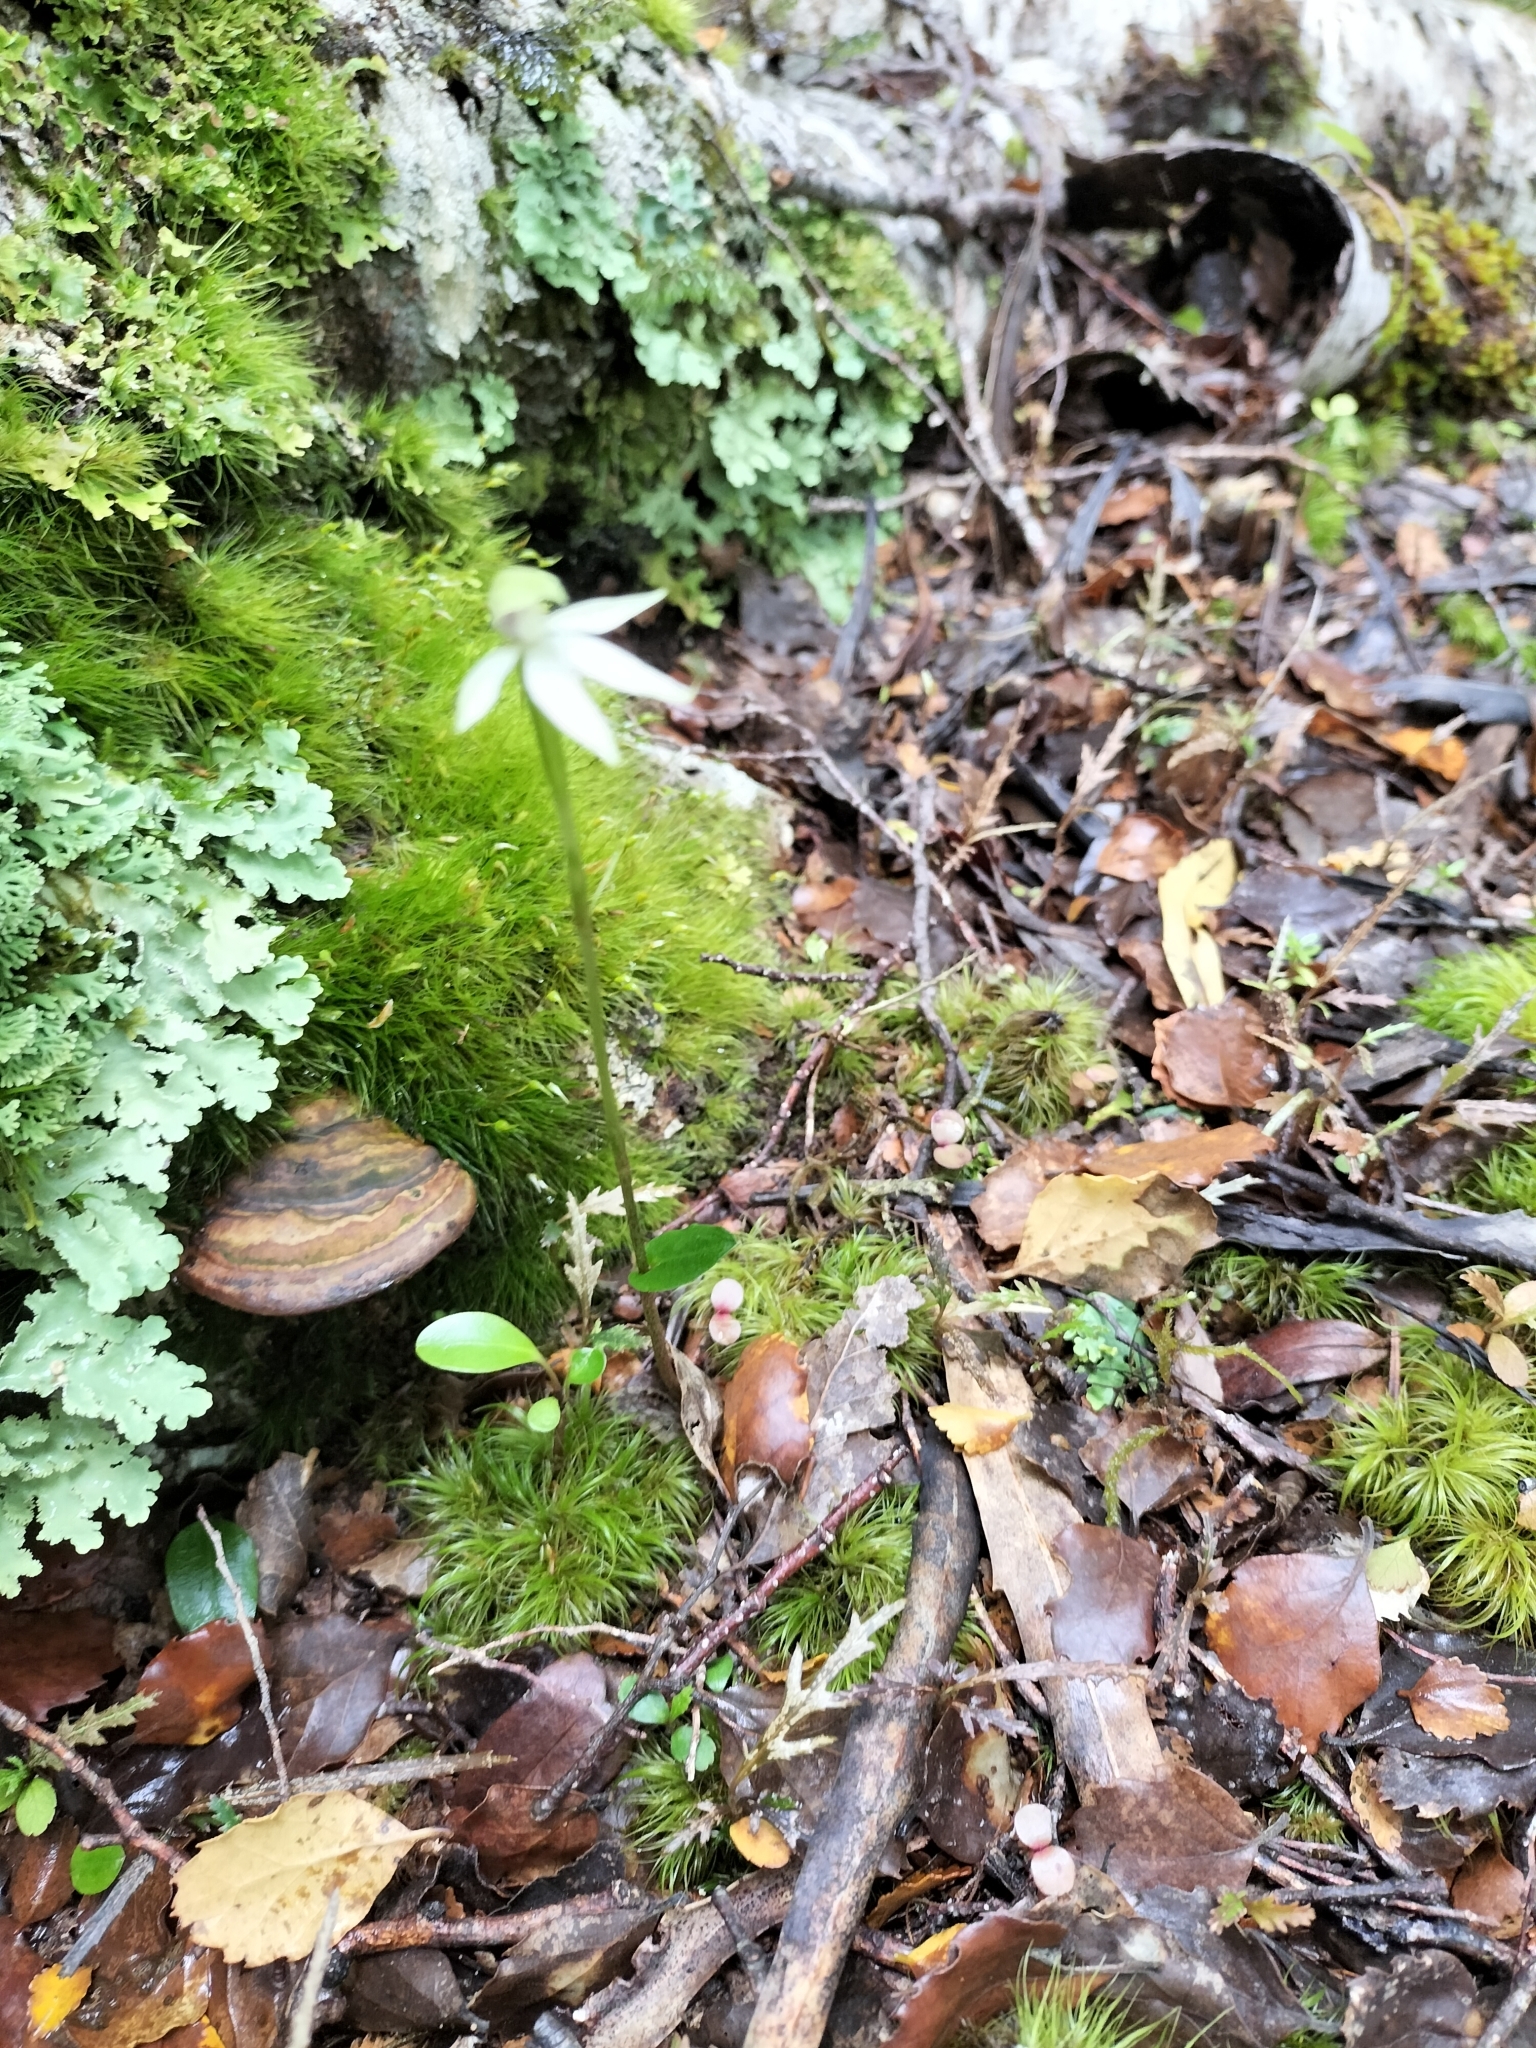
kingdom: Plantae
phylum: Tracheophyta
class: Liliopsida
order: Asparagales
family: Orchidaceae
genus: Adenochilus
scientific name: Adenochilus gracilis
